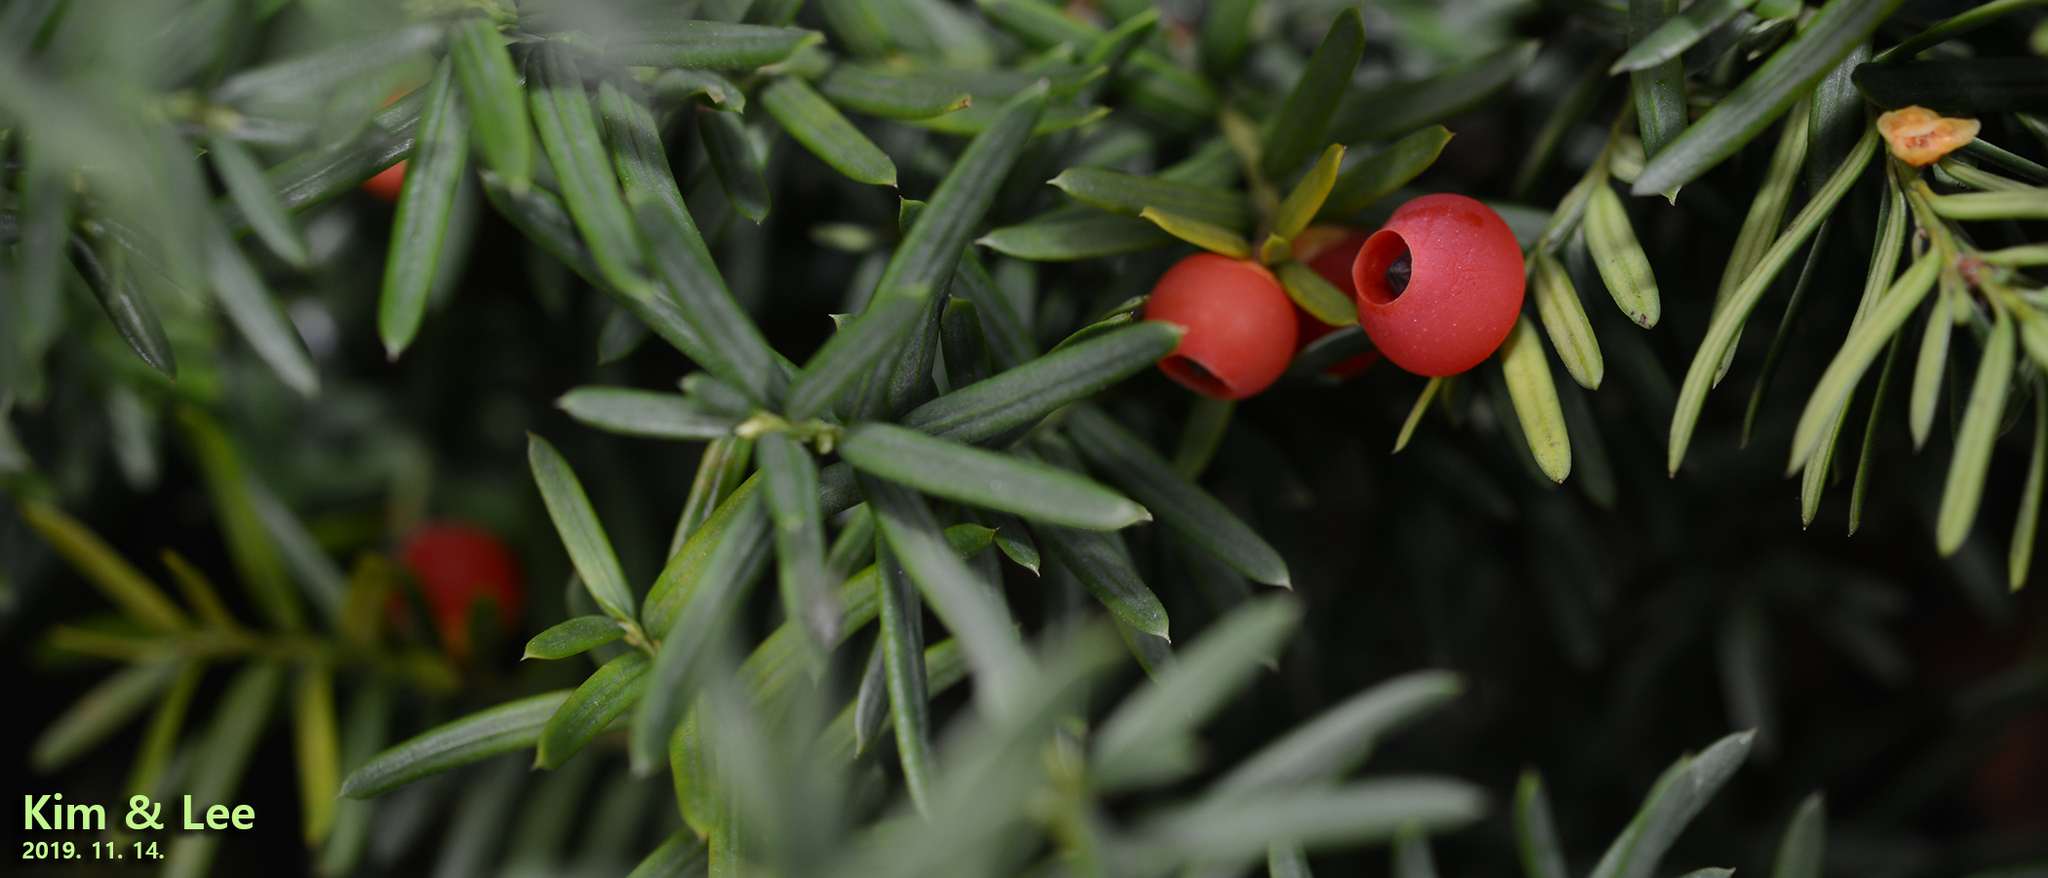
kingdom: Plantae
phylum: Tracheophyta
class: Pinopsida
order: Pinales
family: Taxaceae
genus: Taxus
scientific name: Taxus cuspidata
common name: Japanese yew
